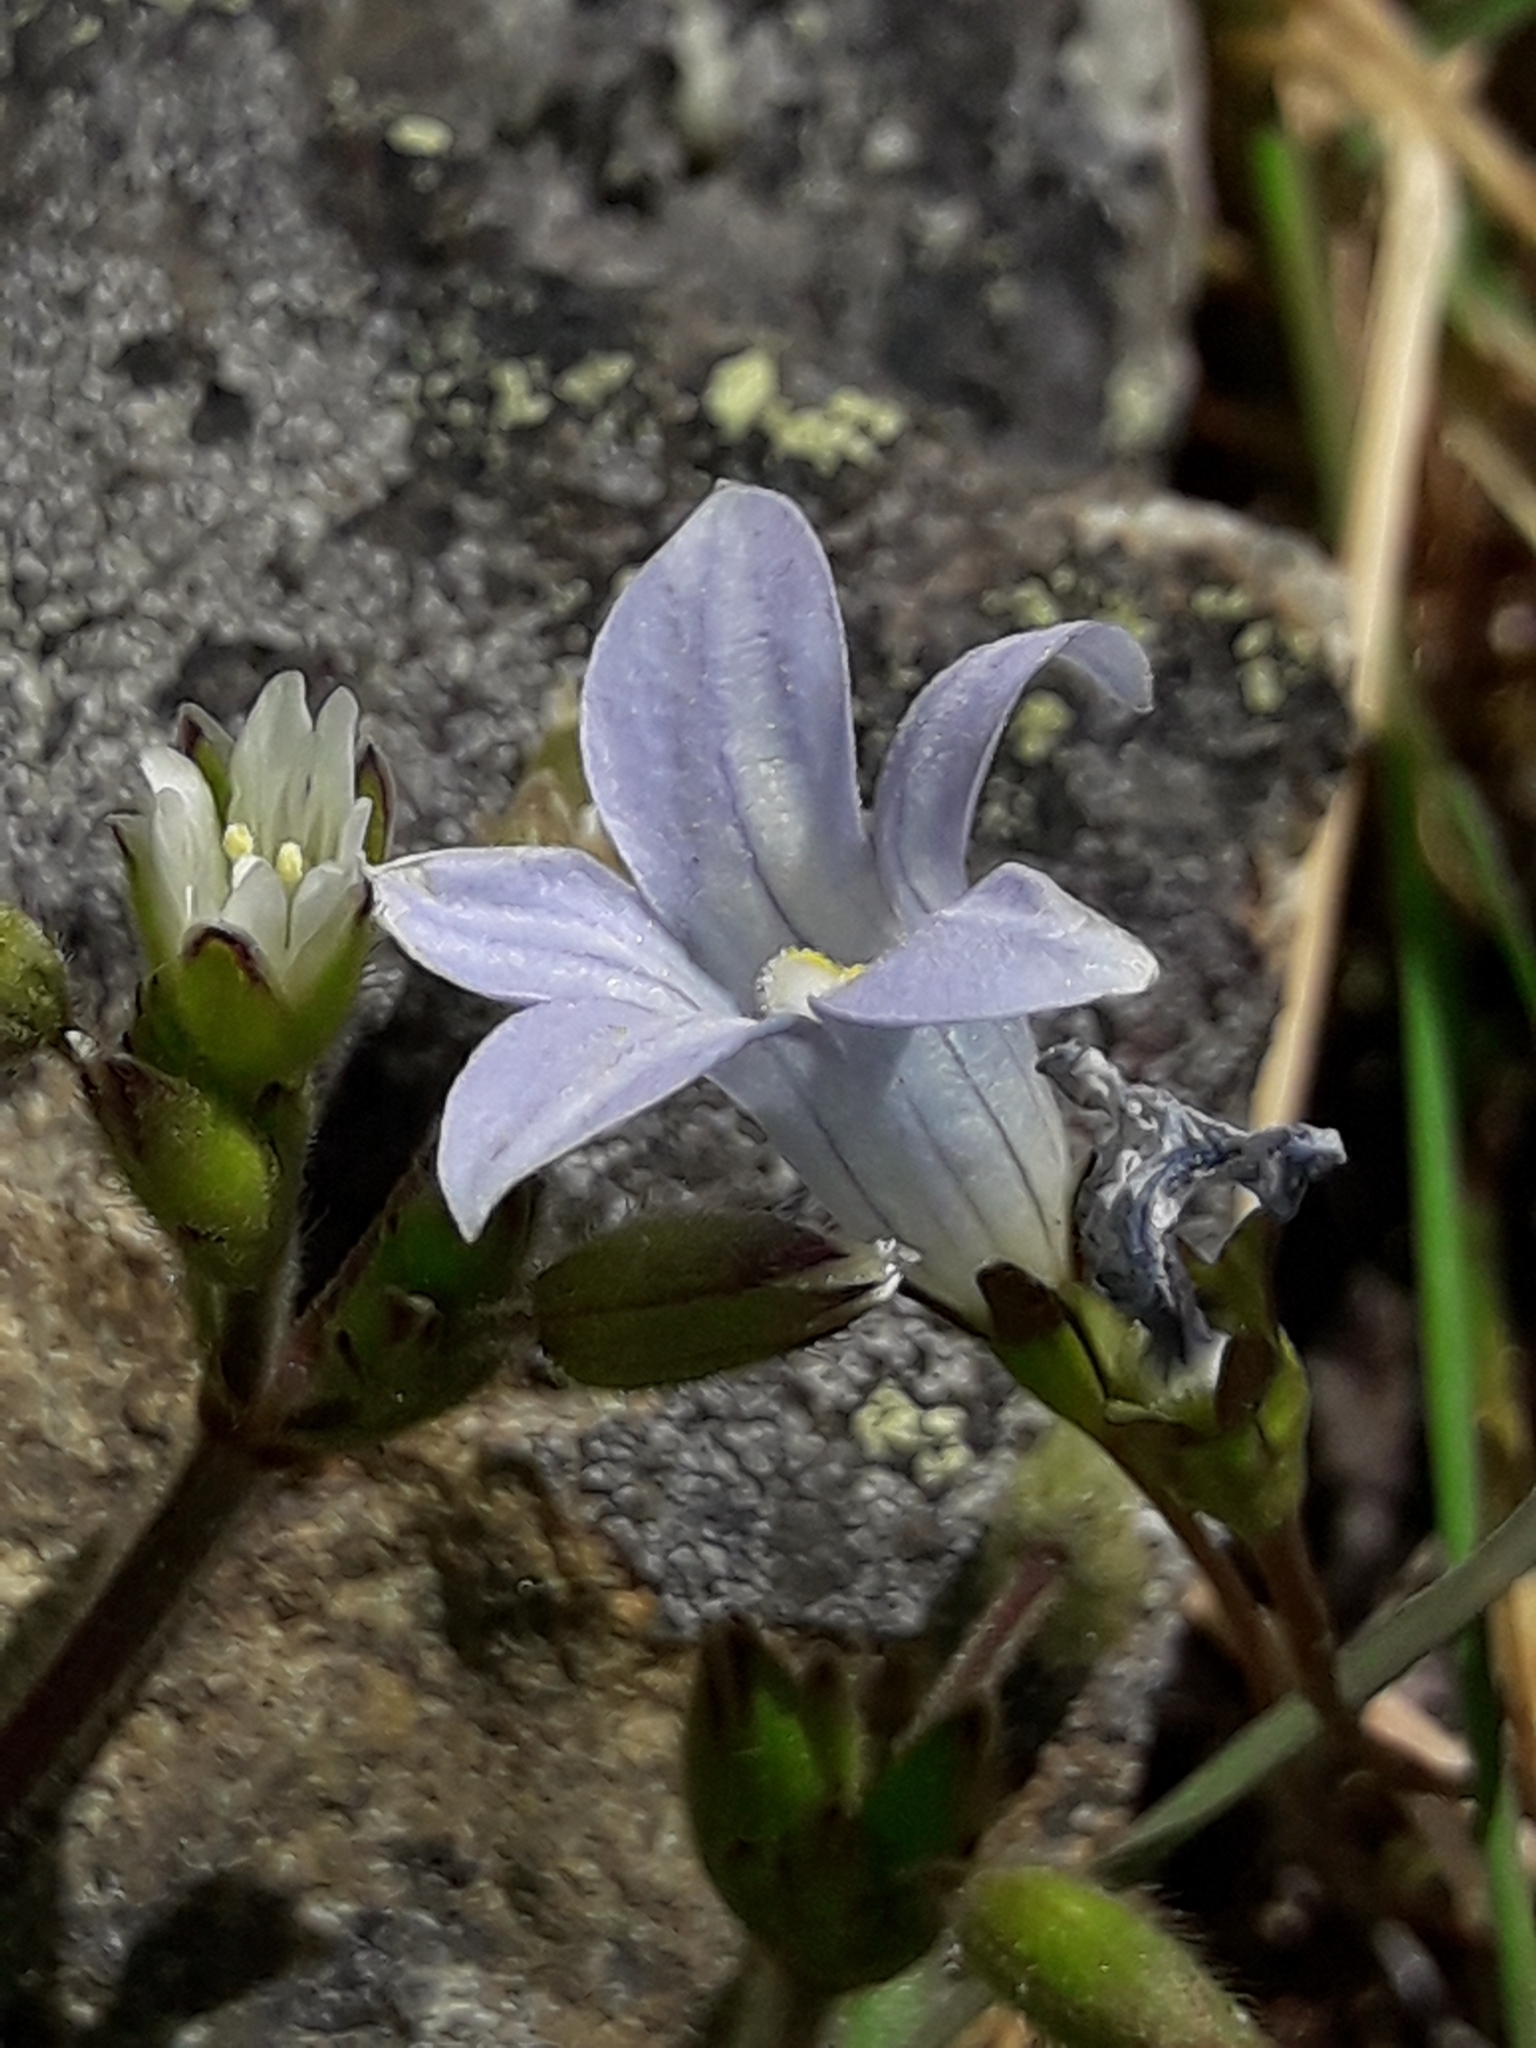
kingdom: Plantae
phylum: Tracheophyta
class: Magnoliopsida
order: Asterales
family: Campanulaceae
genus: Wahlenbergia
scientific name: Wahlenbergia albomarginata
